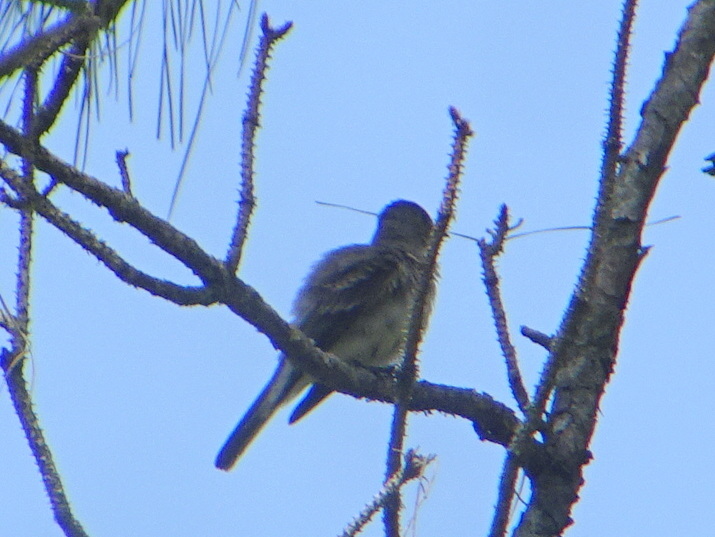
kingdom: Animalia
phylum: Chordata
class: Aves
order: Passeriformes
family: Tyrannidae
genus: Contopus
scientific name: Contopus virens
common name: Eastern wood-pewee
